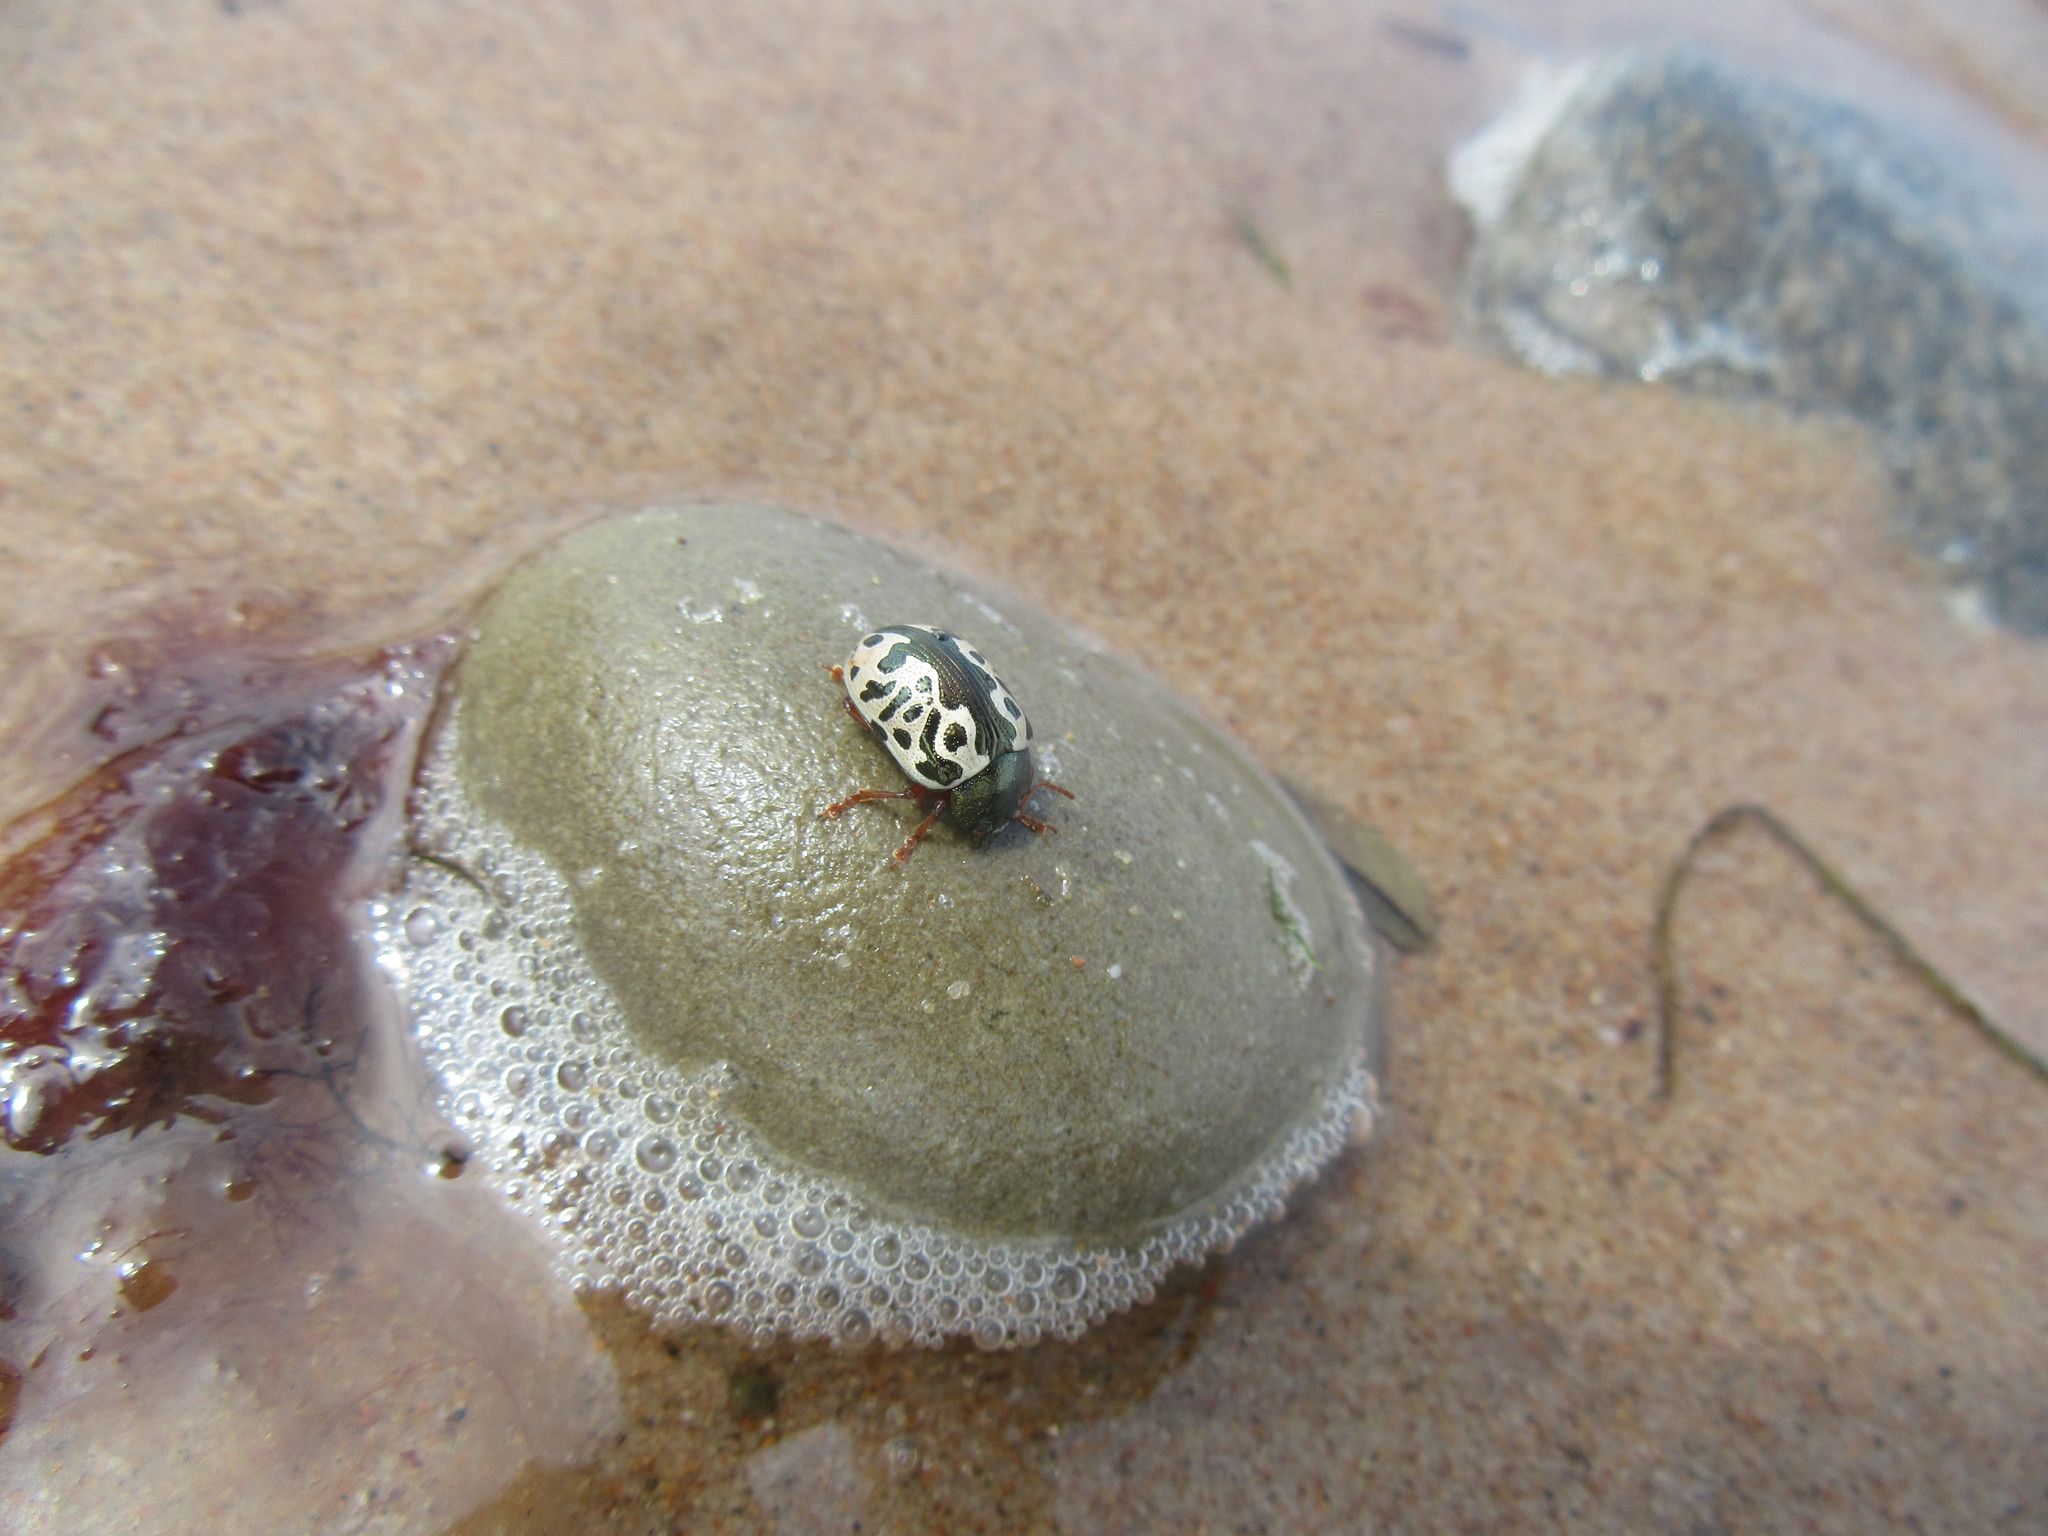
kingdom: Animalia
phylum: Arthropoda
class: Insecta
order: Coleoptera
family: Chrysomelidae
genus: Calligrapha
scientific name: Calligrapha ignota
